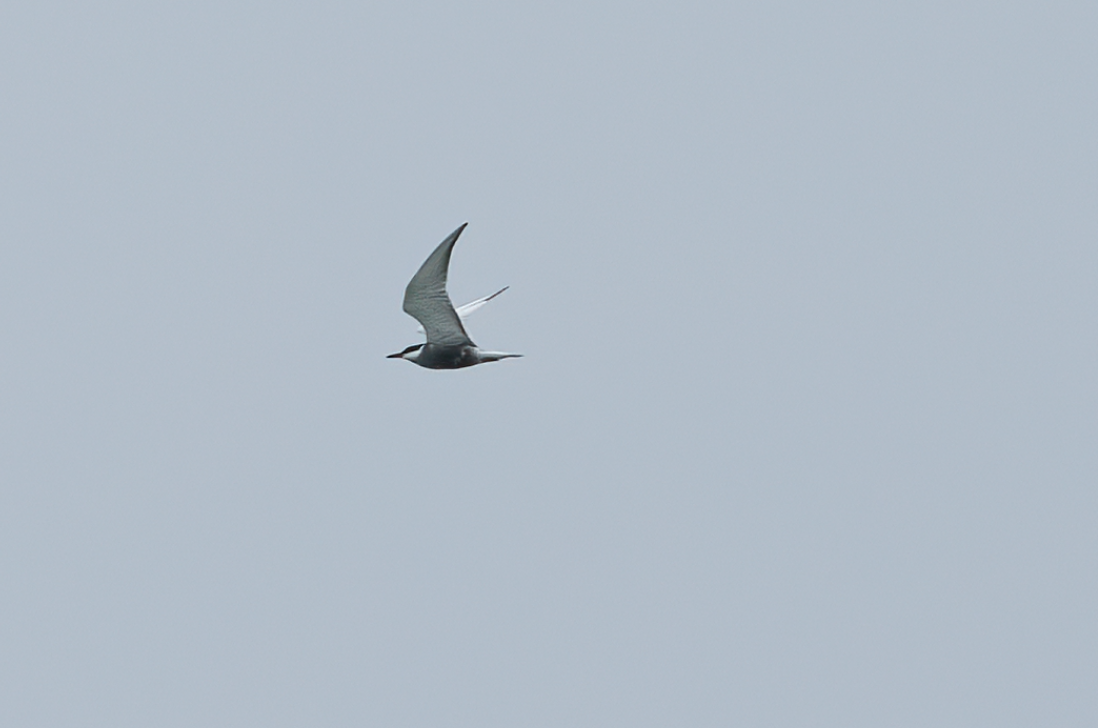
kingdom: Animalia
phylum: Chordata
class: Aves
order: Charadriiformes
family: Laridae
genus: Chlidonias
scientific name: Chlidonias hybrida
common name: Whiskered tern
